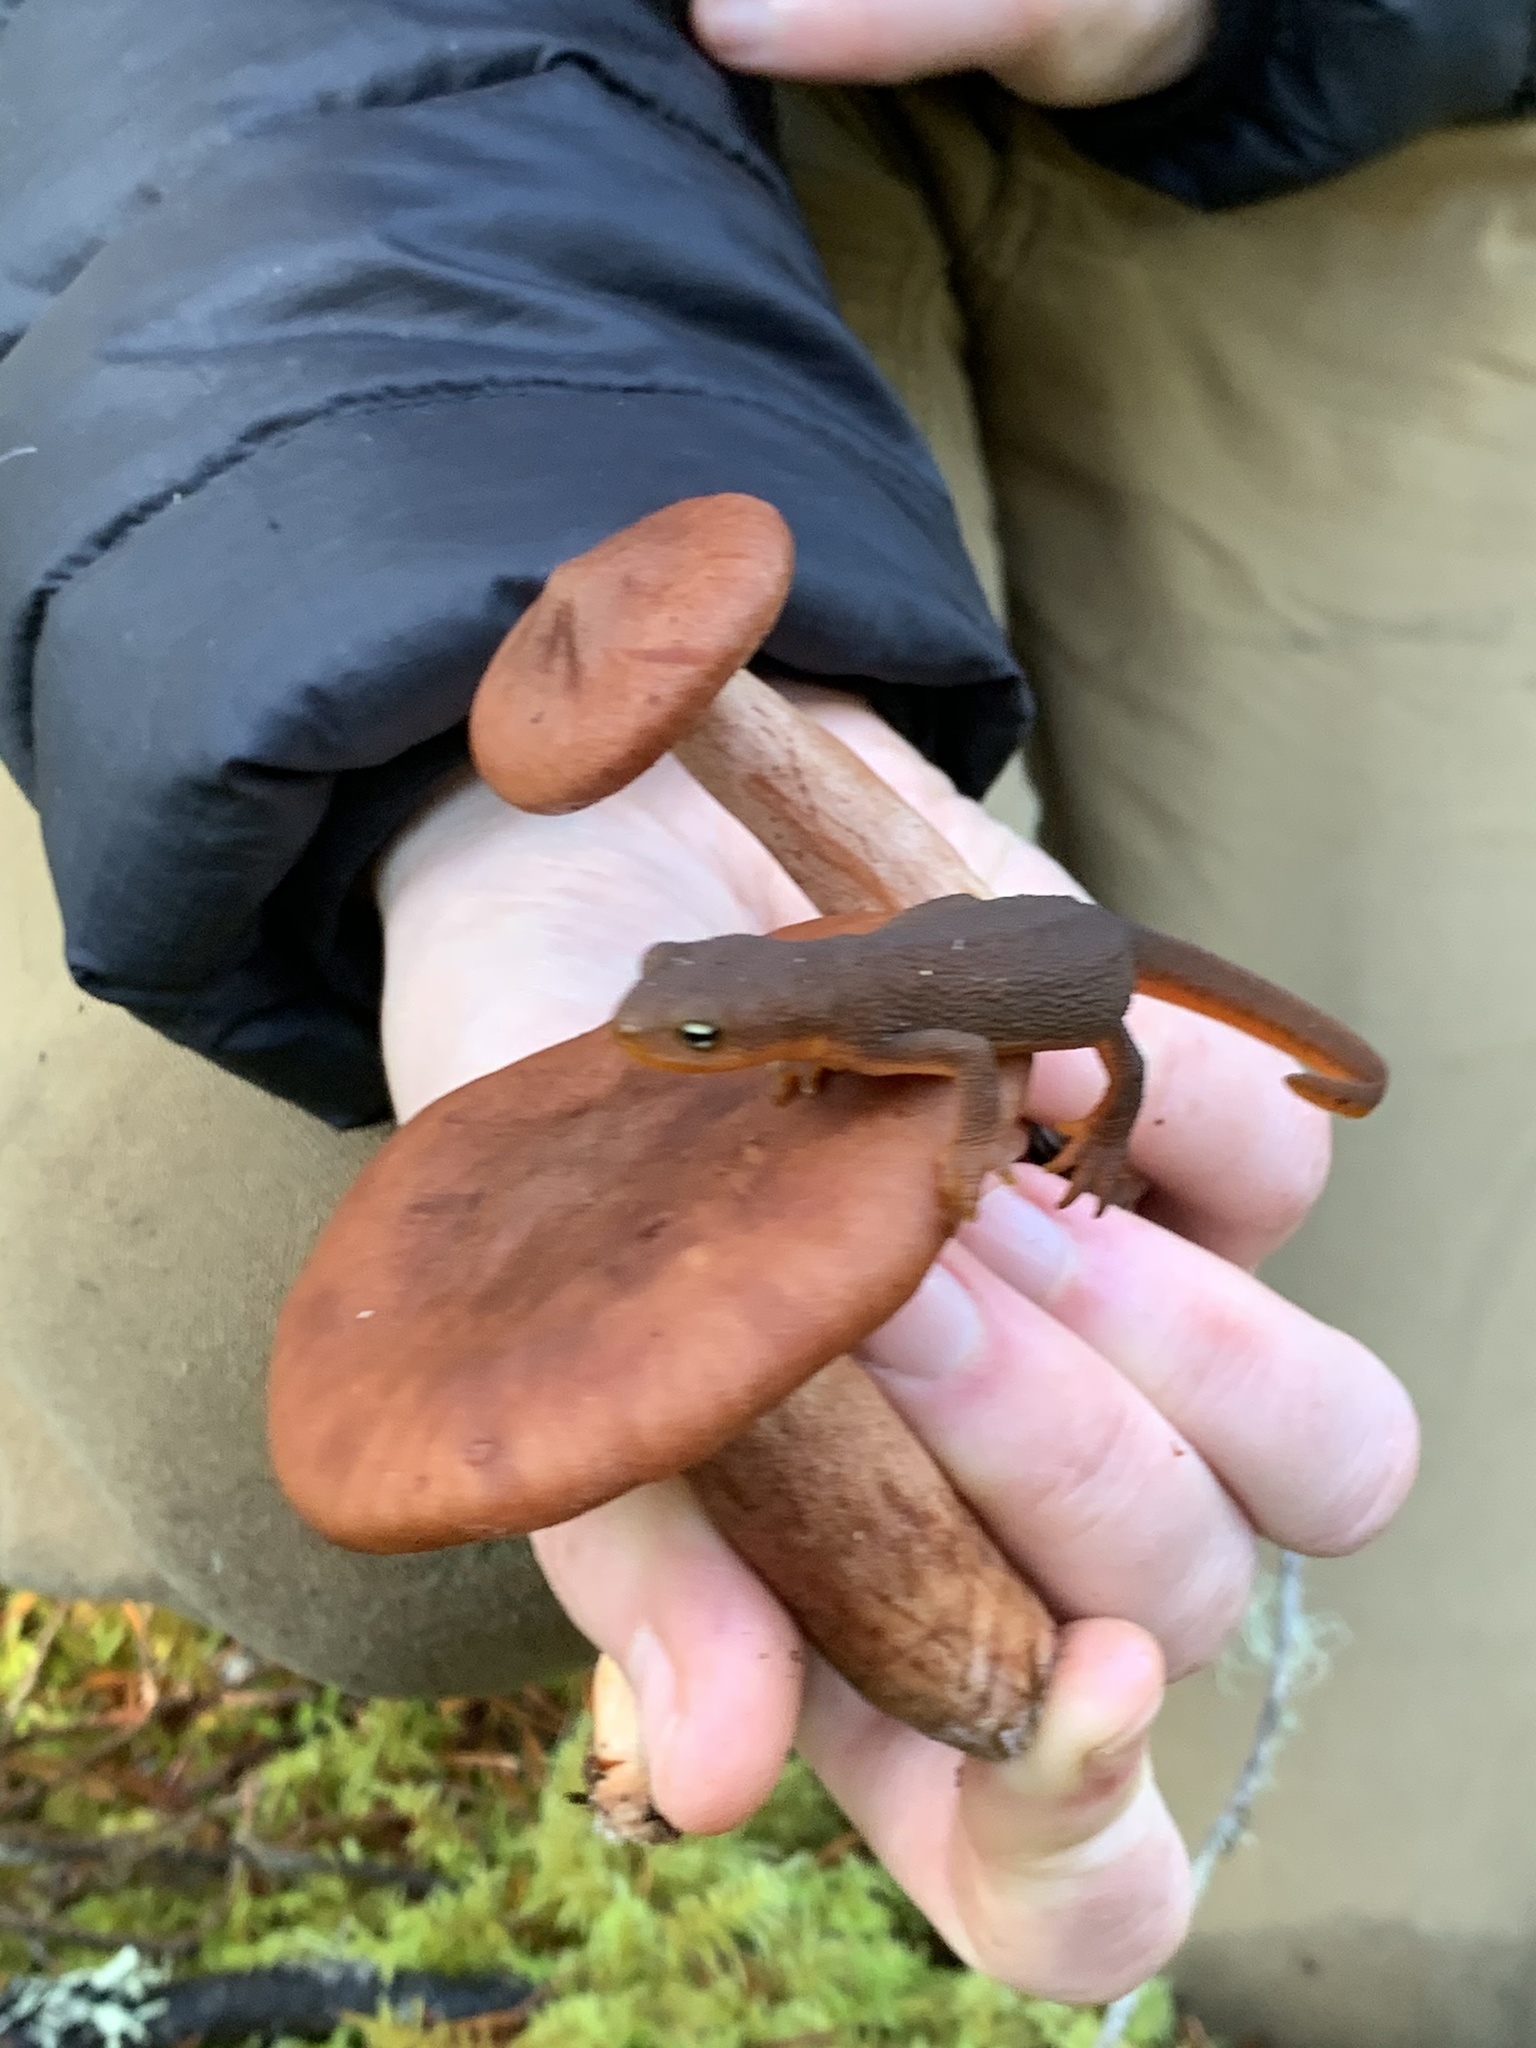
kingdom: Animalia
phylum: Chordata
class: Amphibia
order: Caudata
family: Salamandridae
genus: Taricha
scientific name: Taricha granulosa
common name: Roughskin newt
